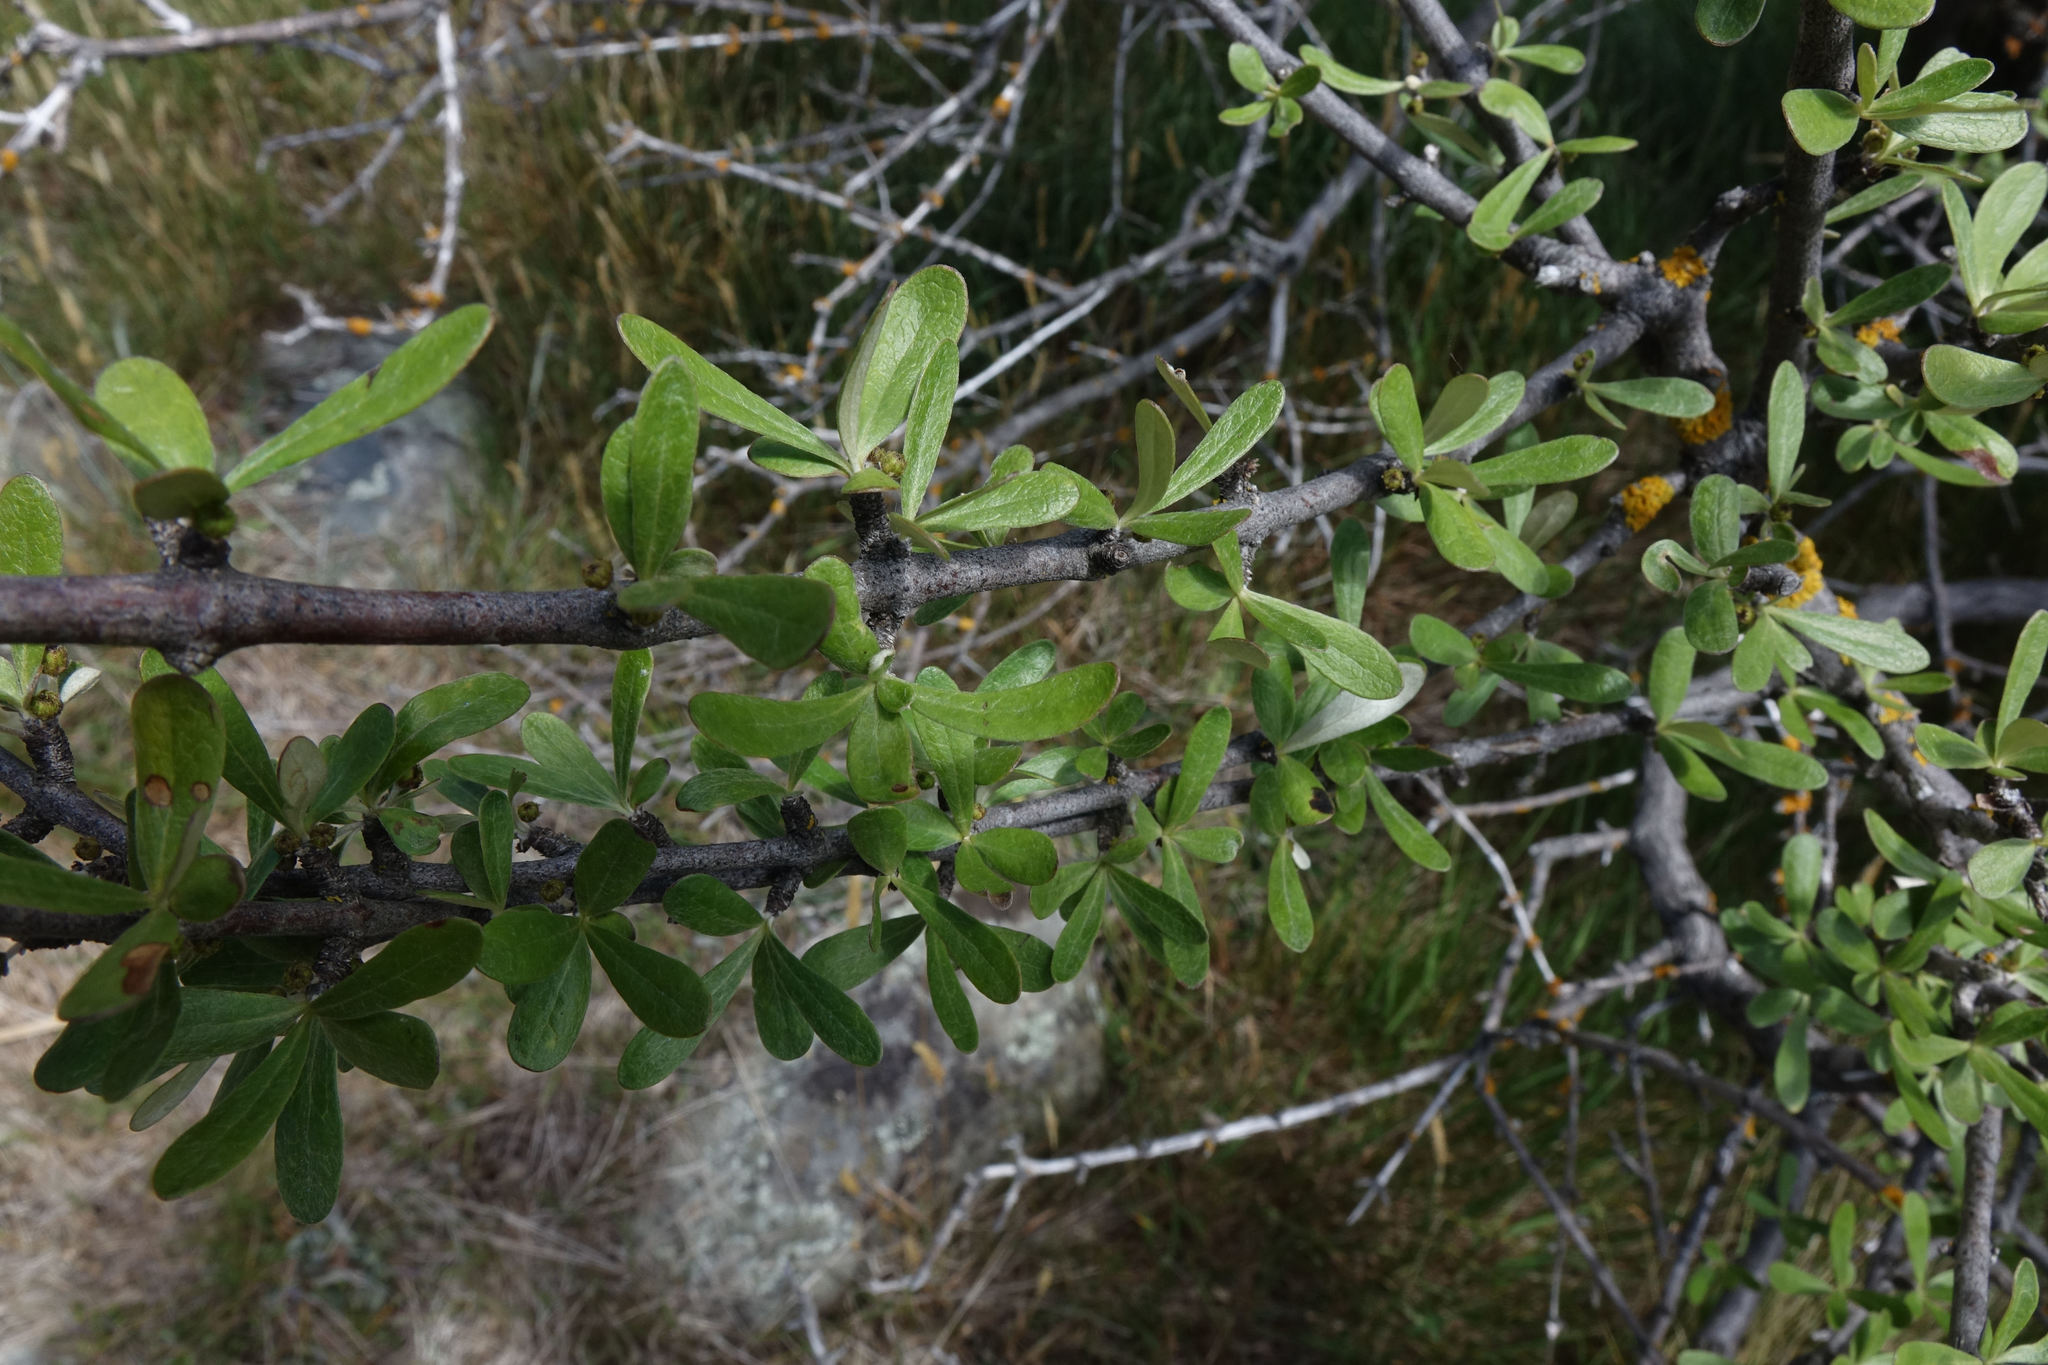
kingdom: Plantae
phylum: Tracheophyta
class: Magnoliopsida
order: Asterales
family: Asteraceae
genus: Olearia
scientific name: Olearia odorata
